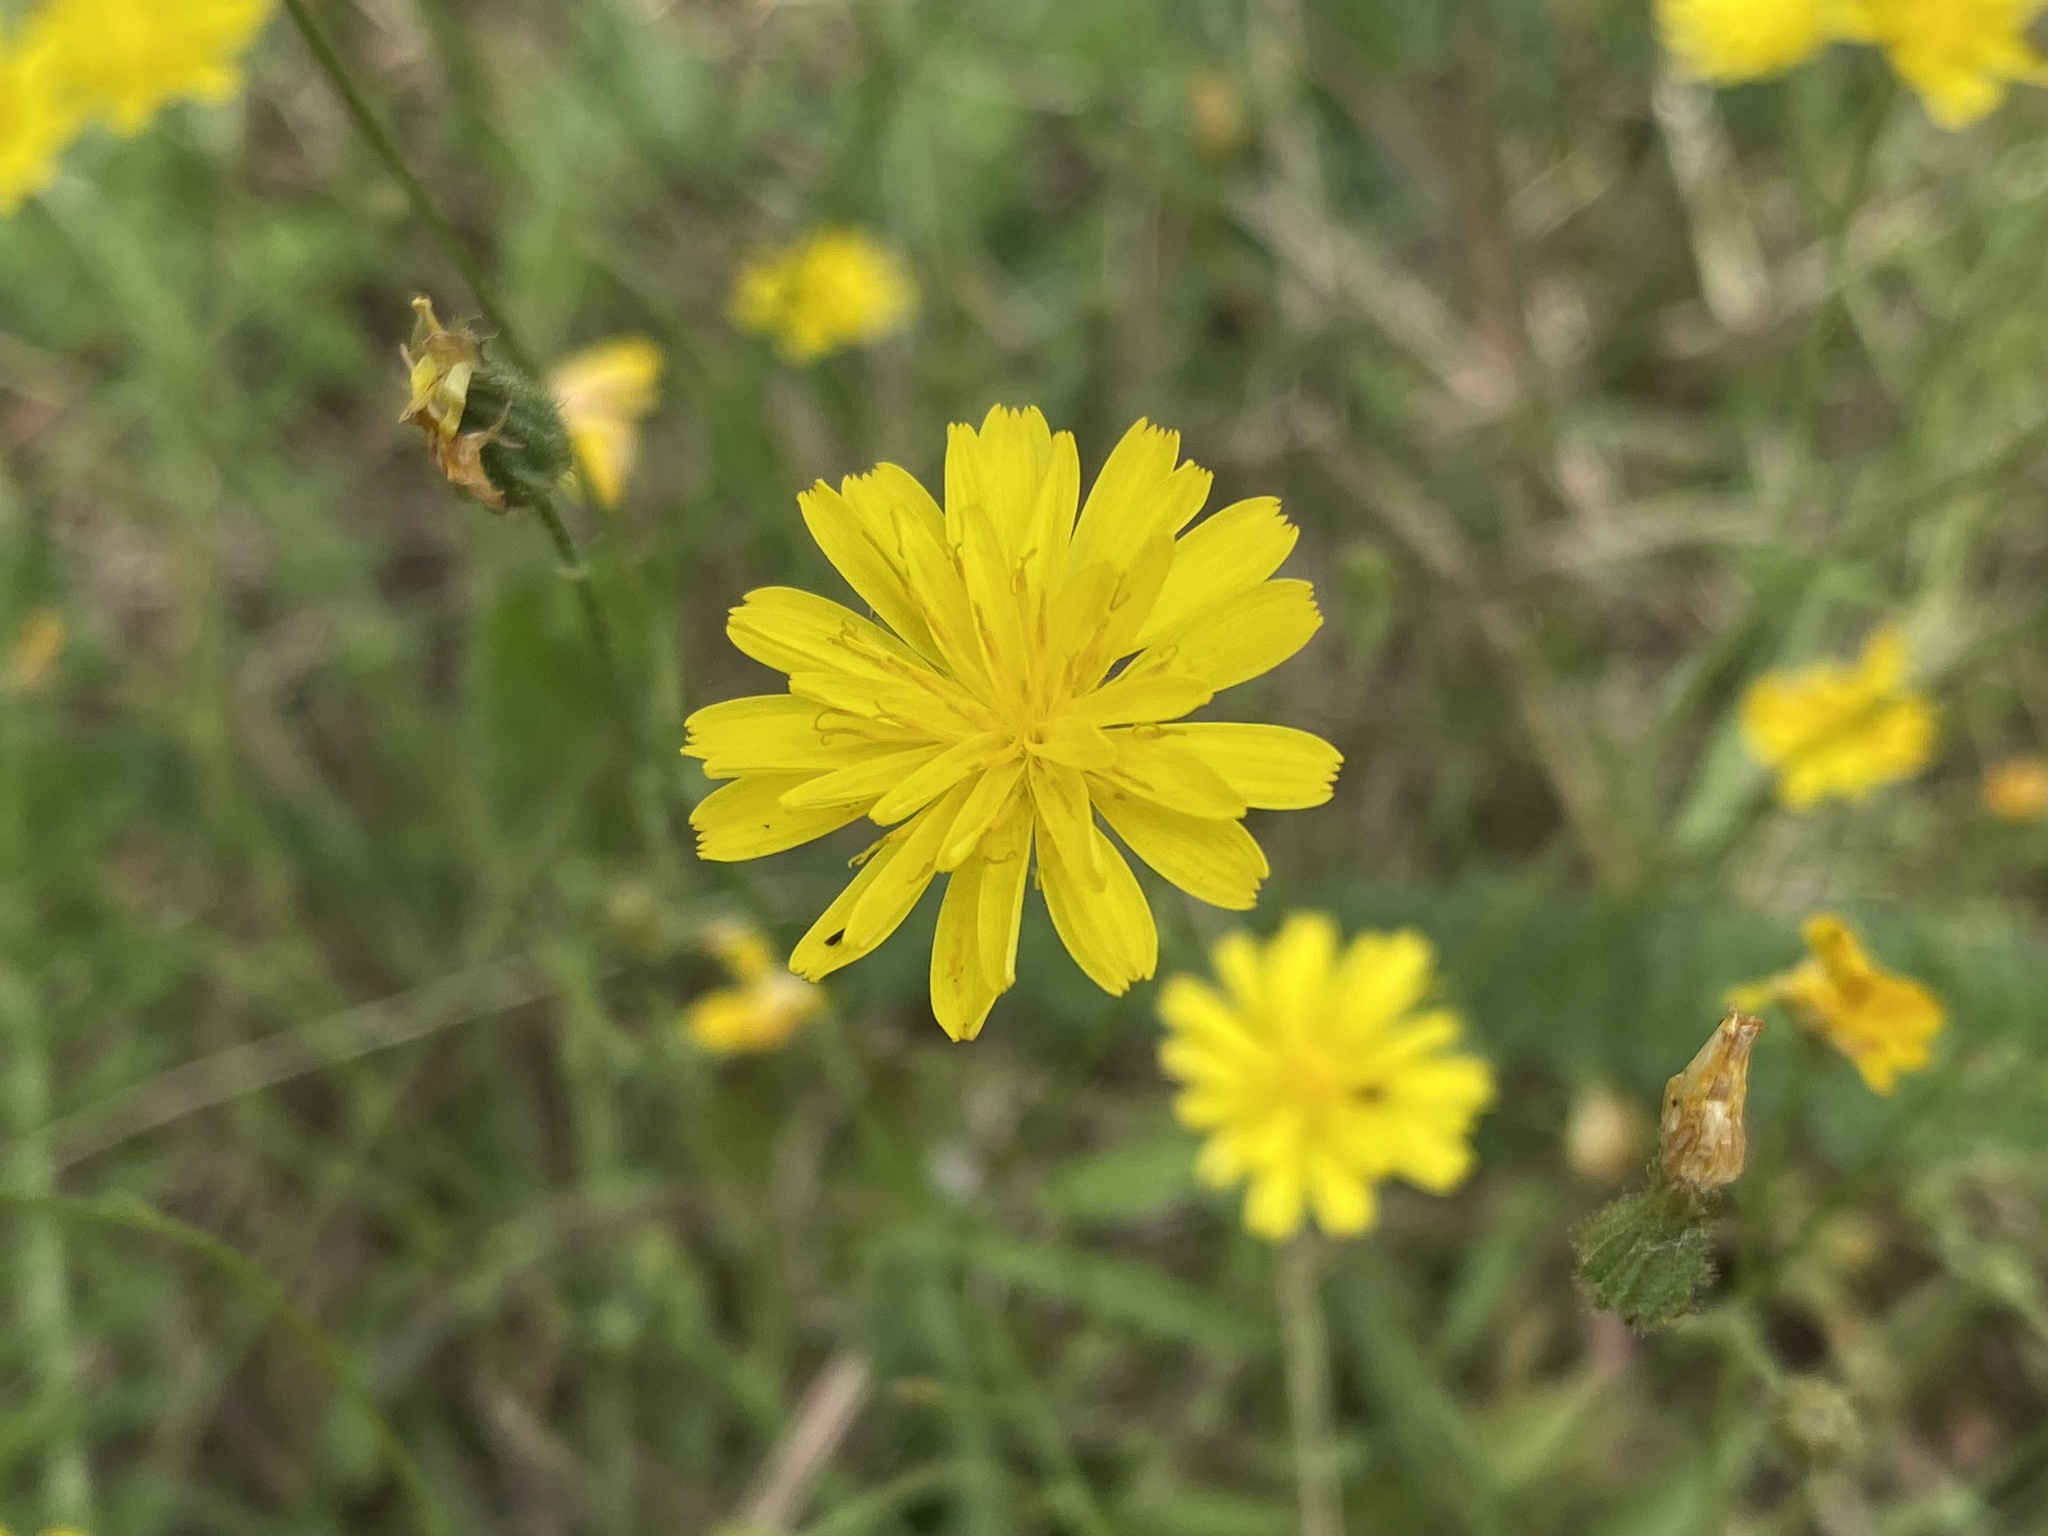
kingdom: Plantae
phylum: Tracheophyta
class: Magnoliopsida
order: Asterales
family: Asteraceae
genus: Crepis
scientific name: Crepis capillaris
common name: Smooth hawksbeard
